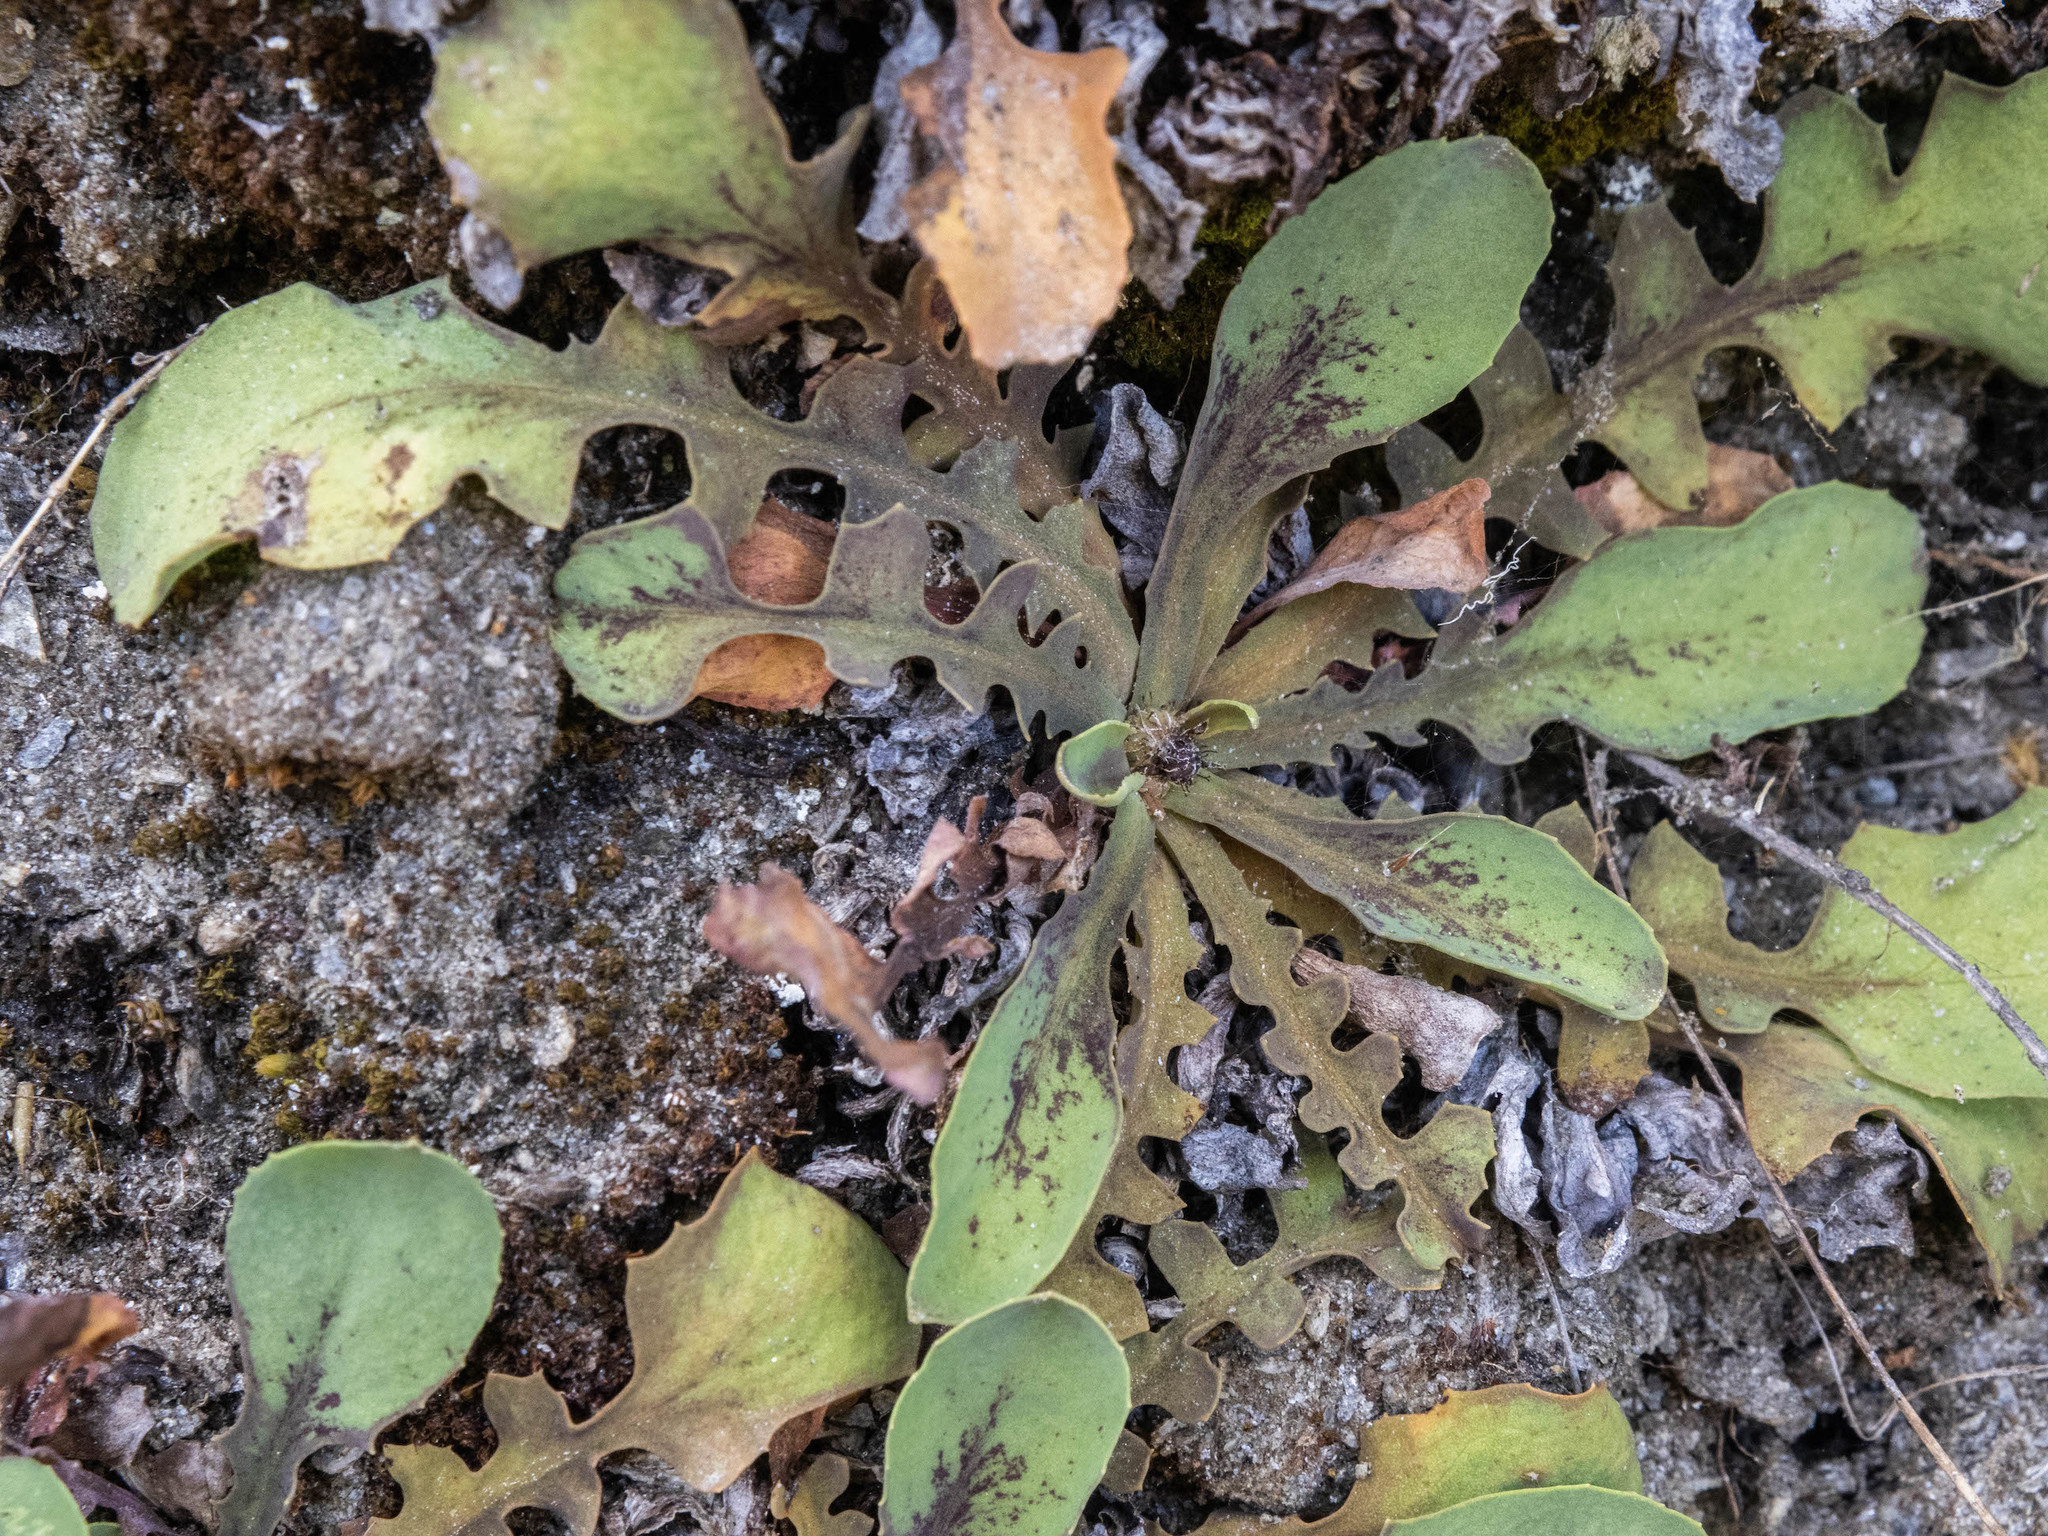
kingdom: Plantae
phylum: Tracheophyta
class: Magnoliopsida
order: Asterales
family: Asteraceae
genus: Sonchus
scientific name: Sonchus novae-zelandiae
